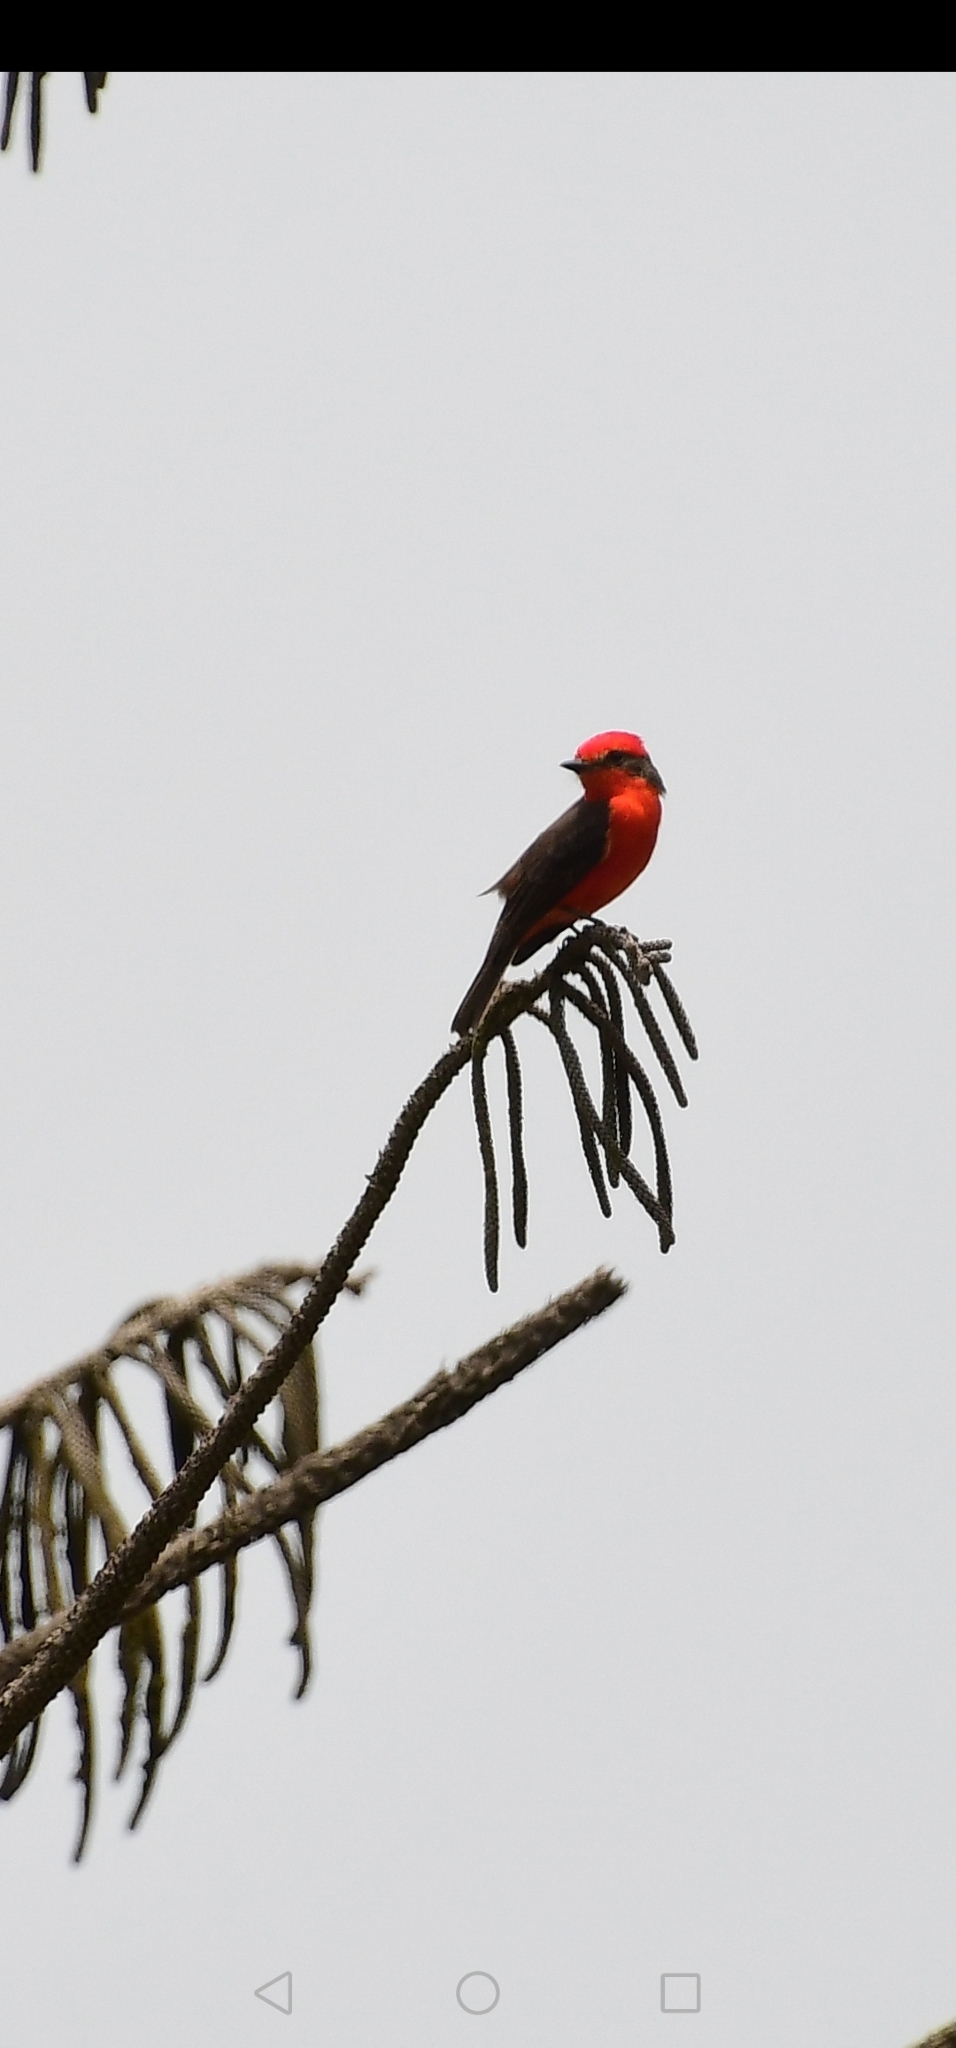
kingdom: Animalia
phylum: Chordata
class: Aves
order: Passeriformes
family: Tyrannidae
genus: Pyrocephalus
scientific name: Pyrocephalus rubinus
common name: Vermilion flycatcher
